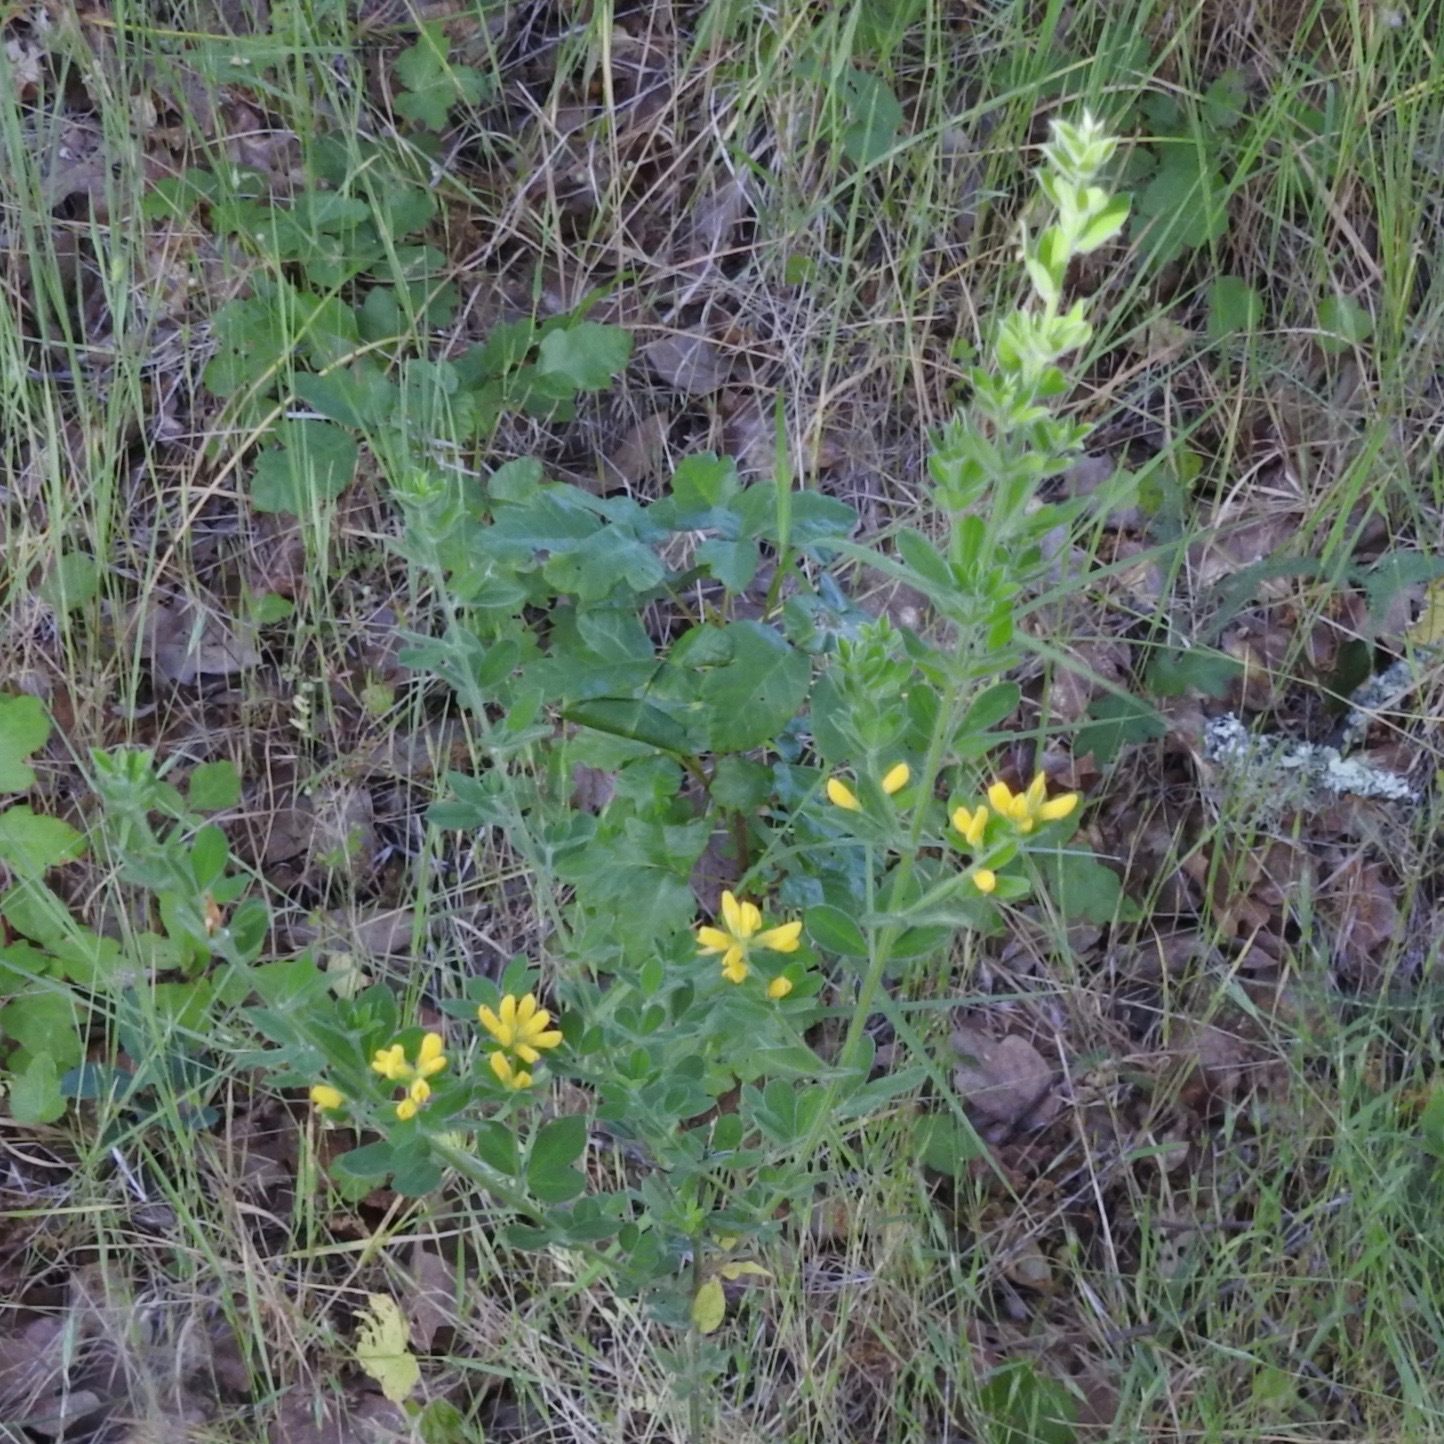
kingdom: Plantae
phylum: Tracheophyta
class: Magnoliopsida
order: Fabales
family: Fabaceae
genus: Genista
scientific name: Genista monspessulana
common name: Montpellier broom
